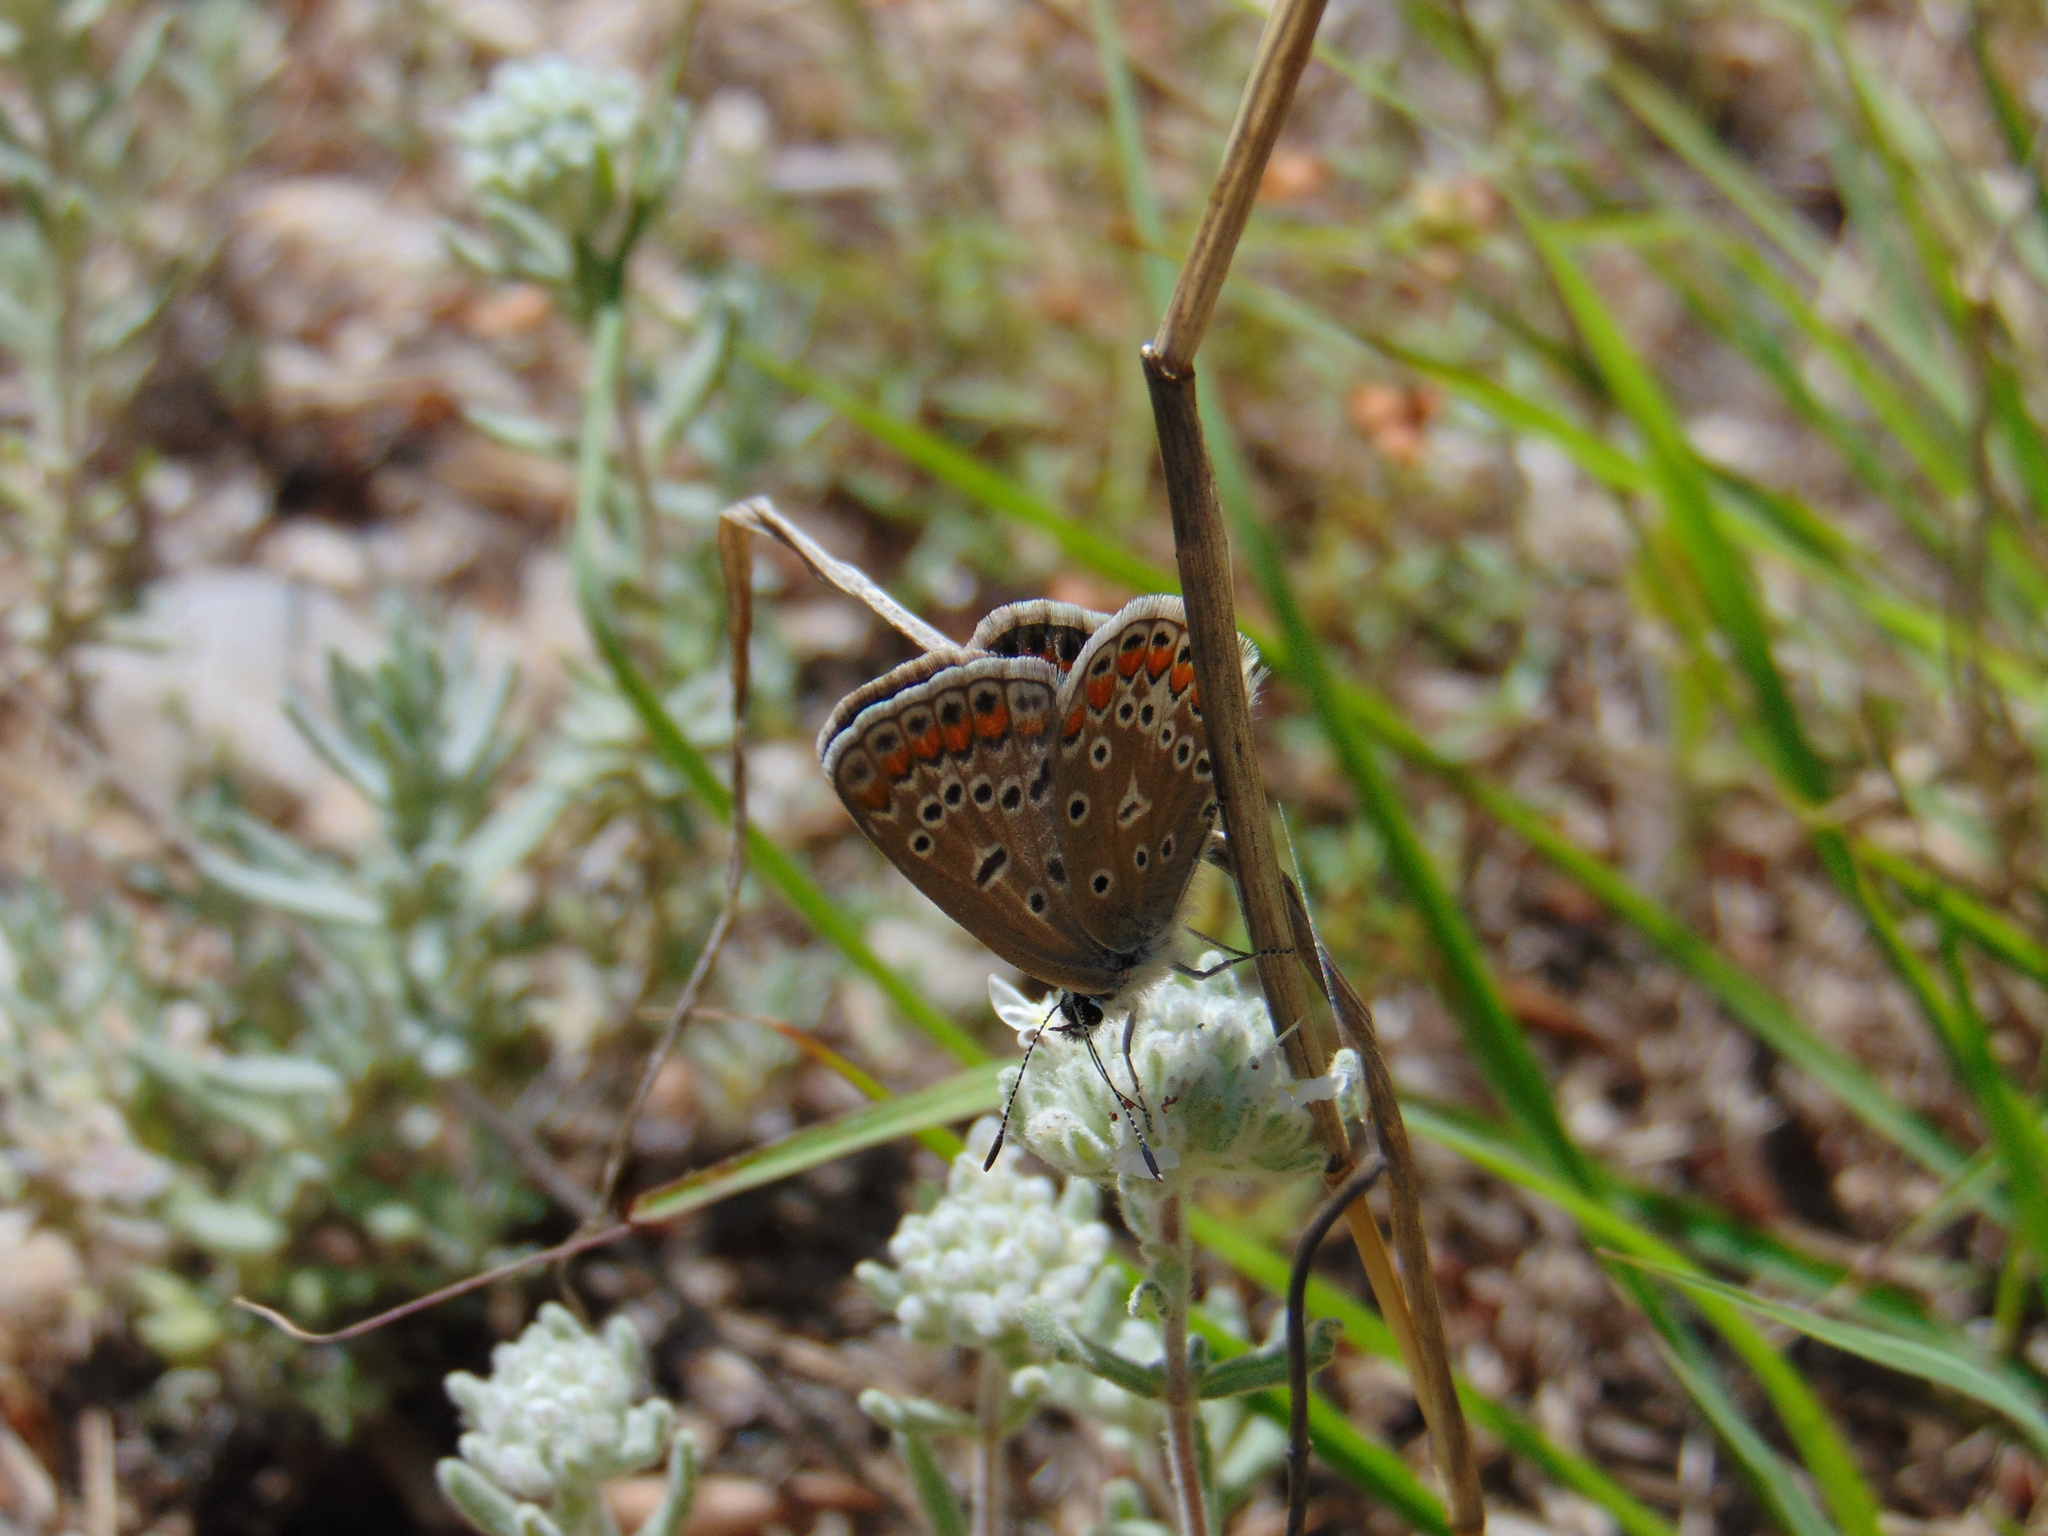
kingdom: Animalia
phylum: Arthropoda
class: Insecta
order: Lepidoptera
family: Lycaenidae
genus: Polyommatus
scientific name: Polyommatus icarus
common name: Common blue
